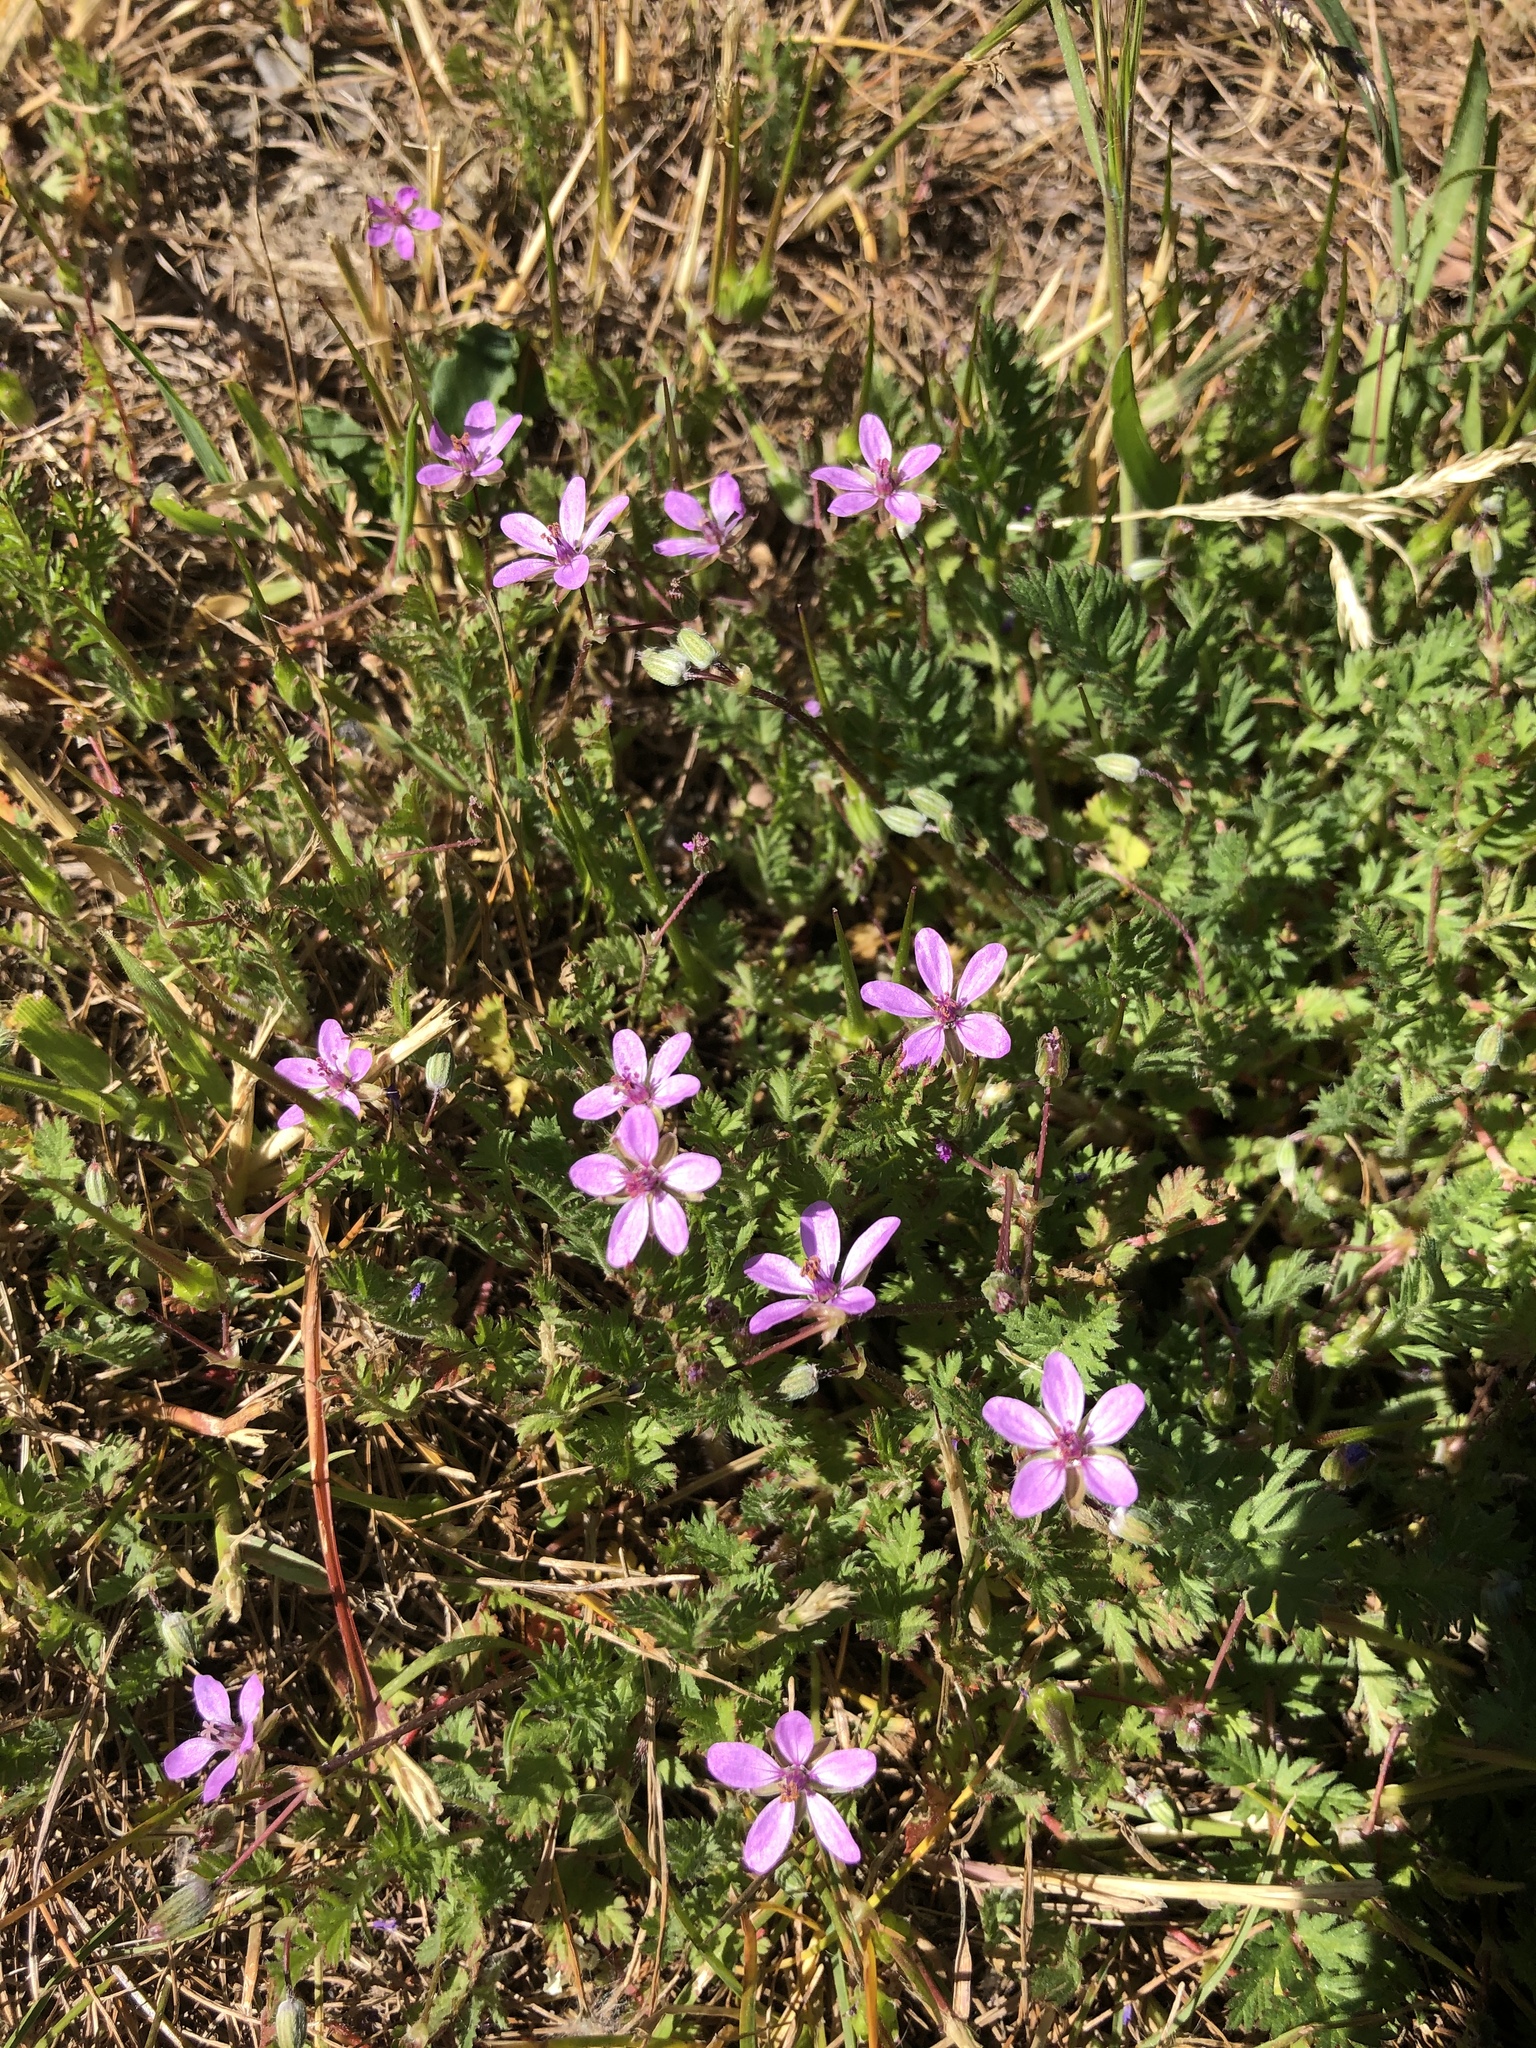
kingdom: Plantae
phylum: Tracheophyta
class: Magnoliopsida
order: Geraniales
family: Geraniaceae
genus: Erodium
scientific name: Erodium cicutarium
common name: Common stork's-bill
